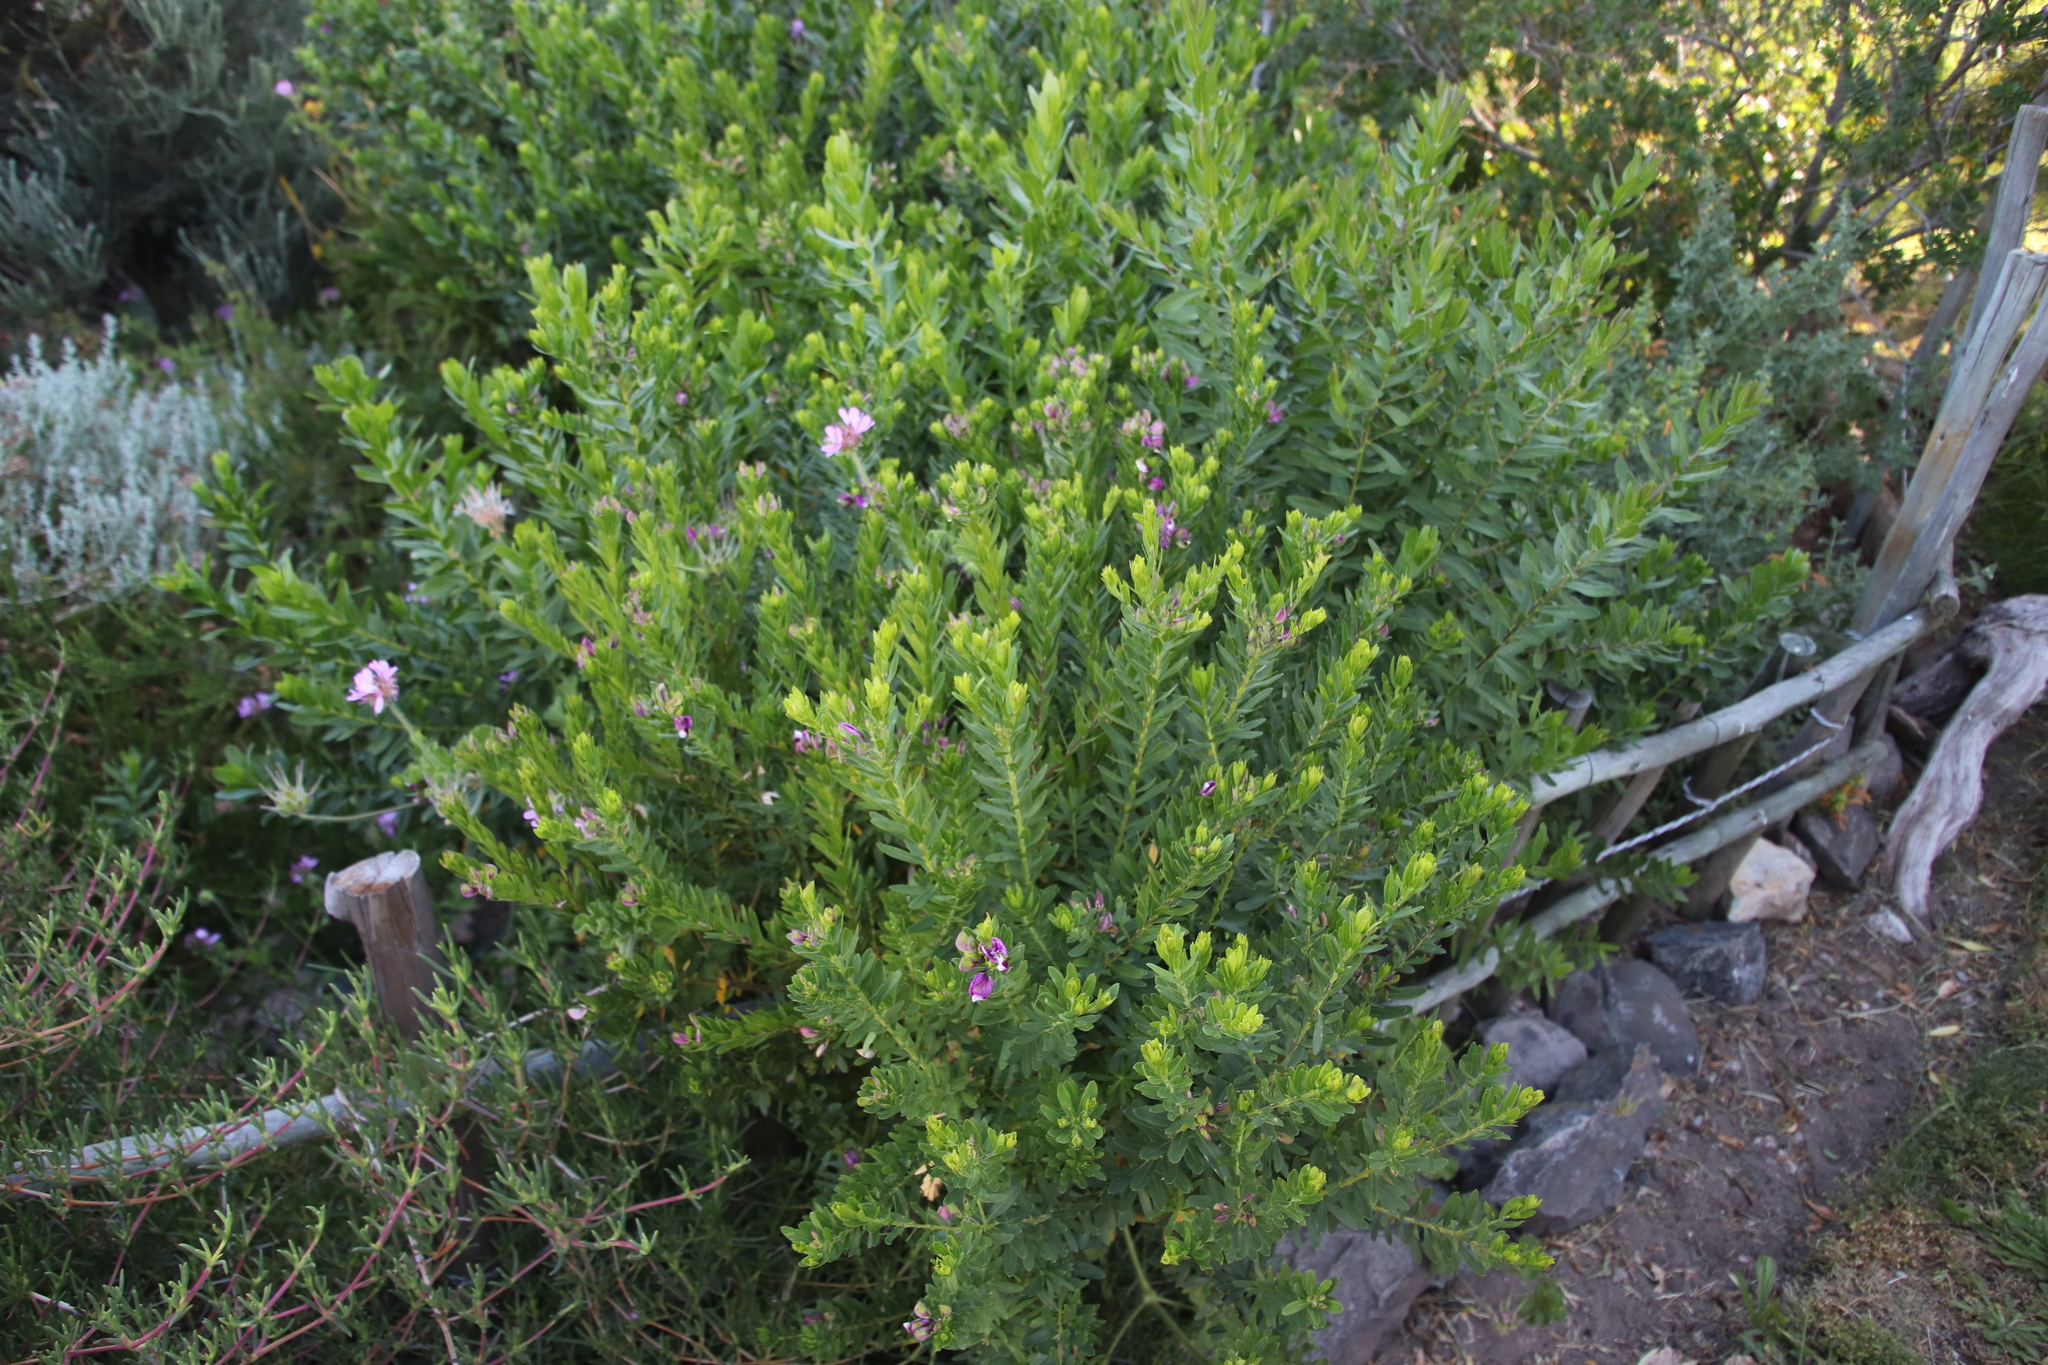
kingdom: Plantae
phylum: Tracheophyta
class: Magnoliopsida
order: Fabales
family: Polygalaceae
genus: Polygala
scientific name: Polygala myrtifolia
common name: Myrtle-leaf milkwort
